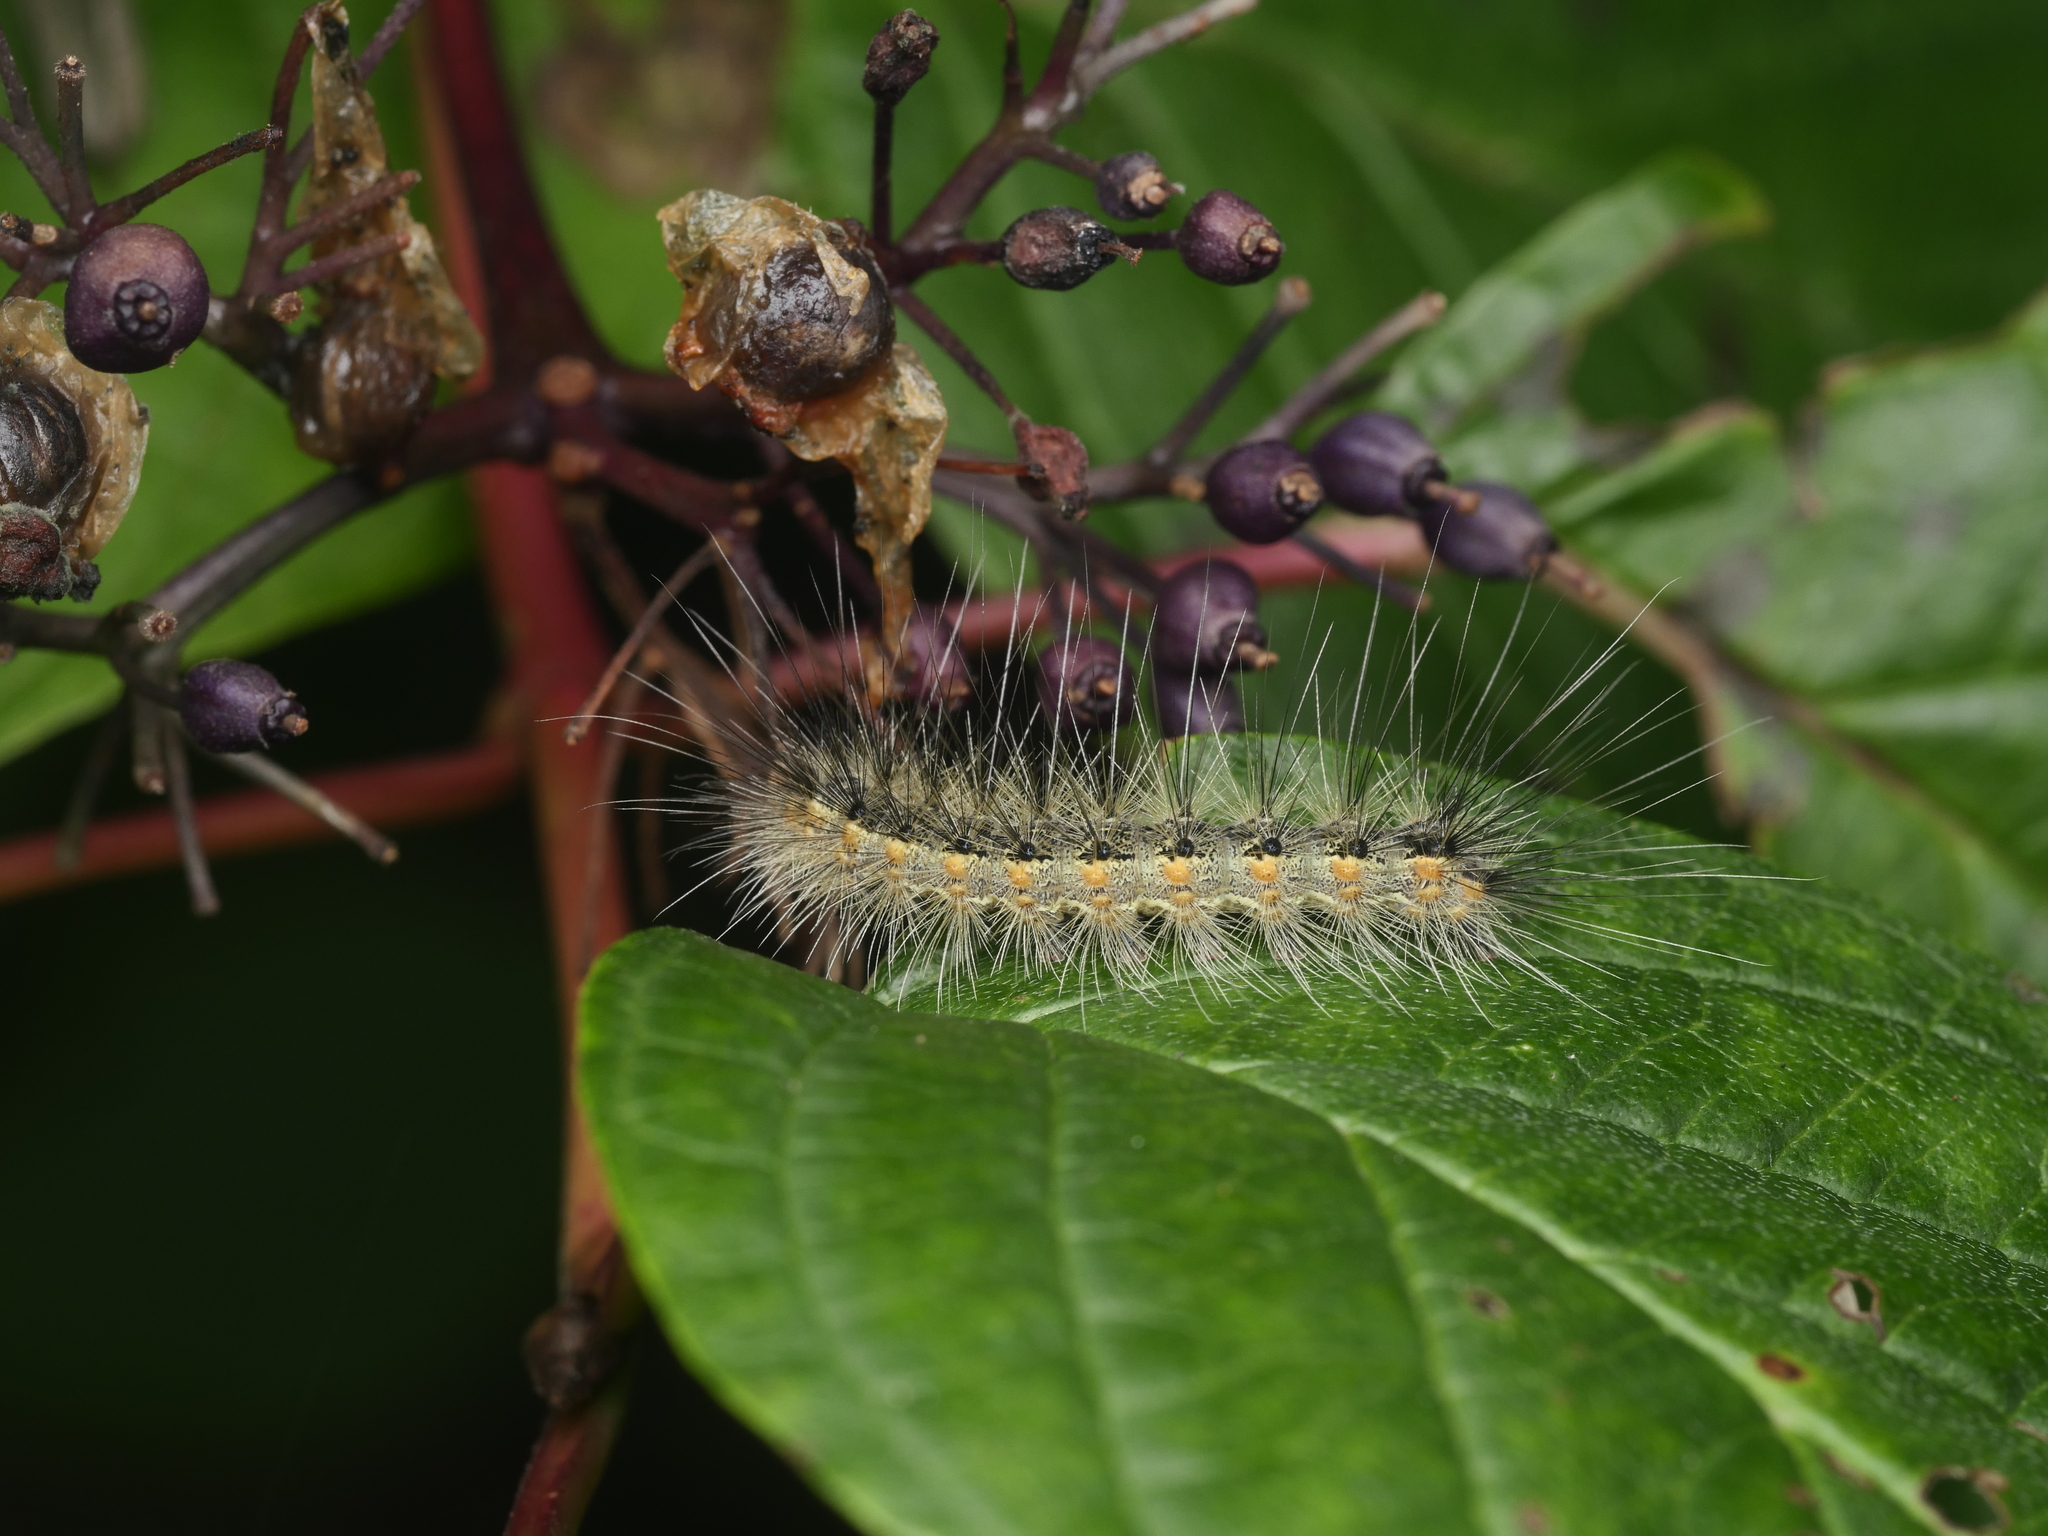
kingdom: Animalia
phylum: Arthropoda
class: Insecta
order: Lepidoptera
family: Erebidae
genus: Hyphantria
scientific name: Hyphantria cunea
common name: American white moth
